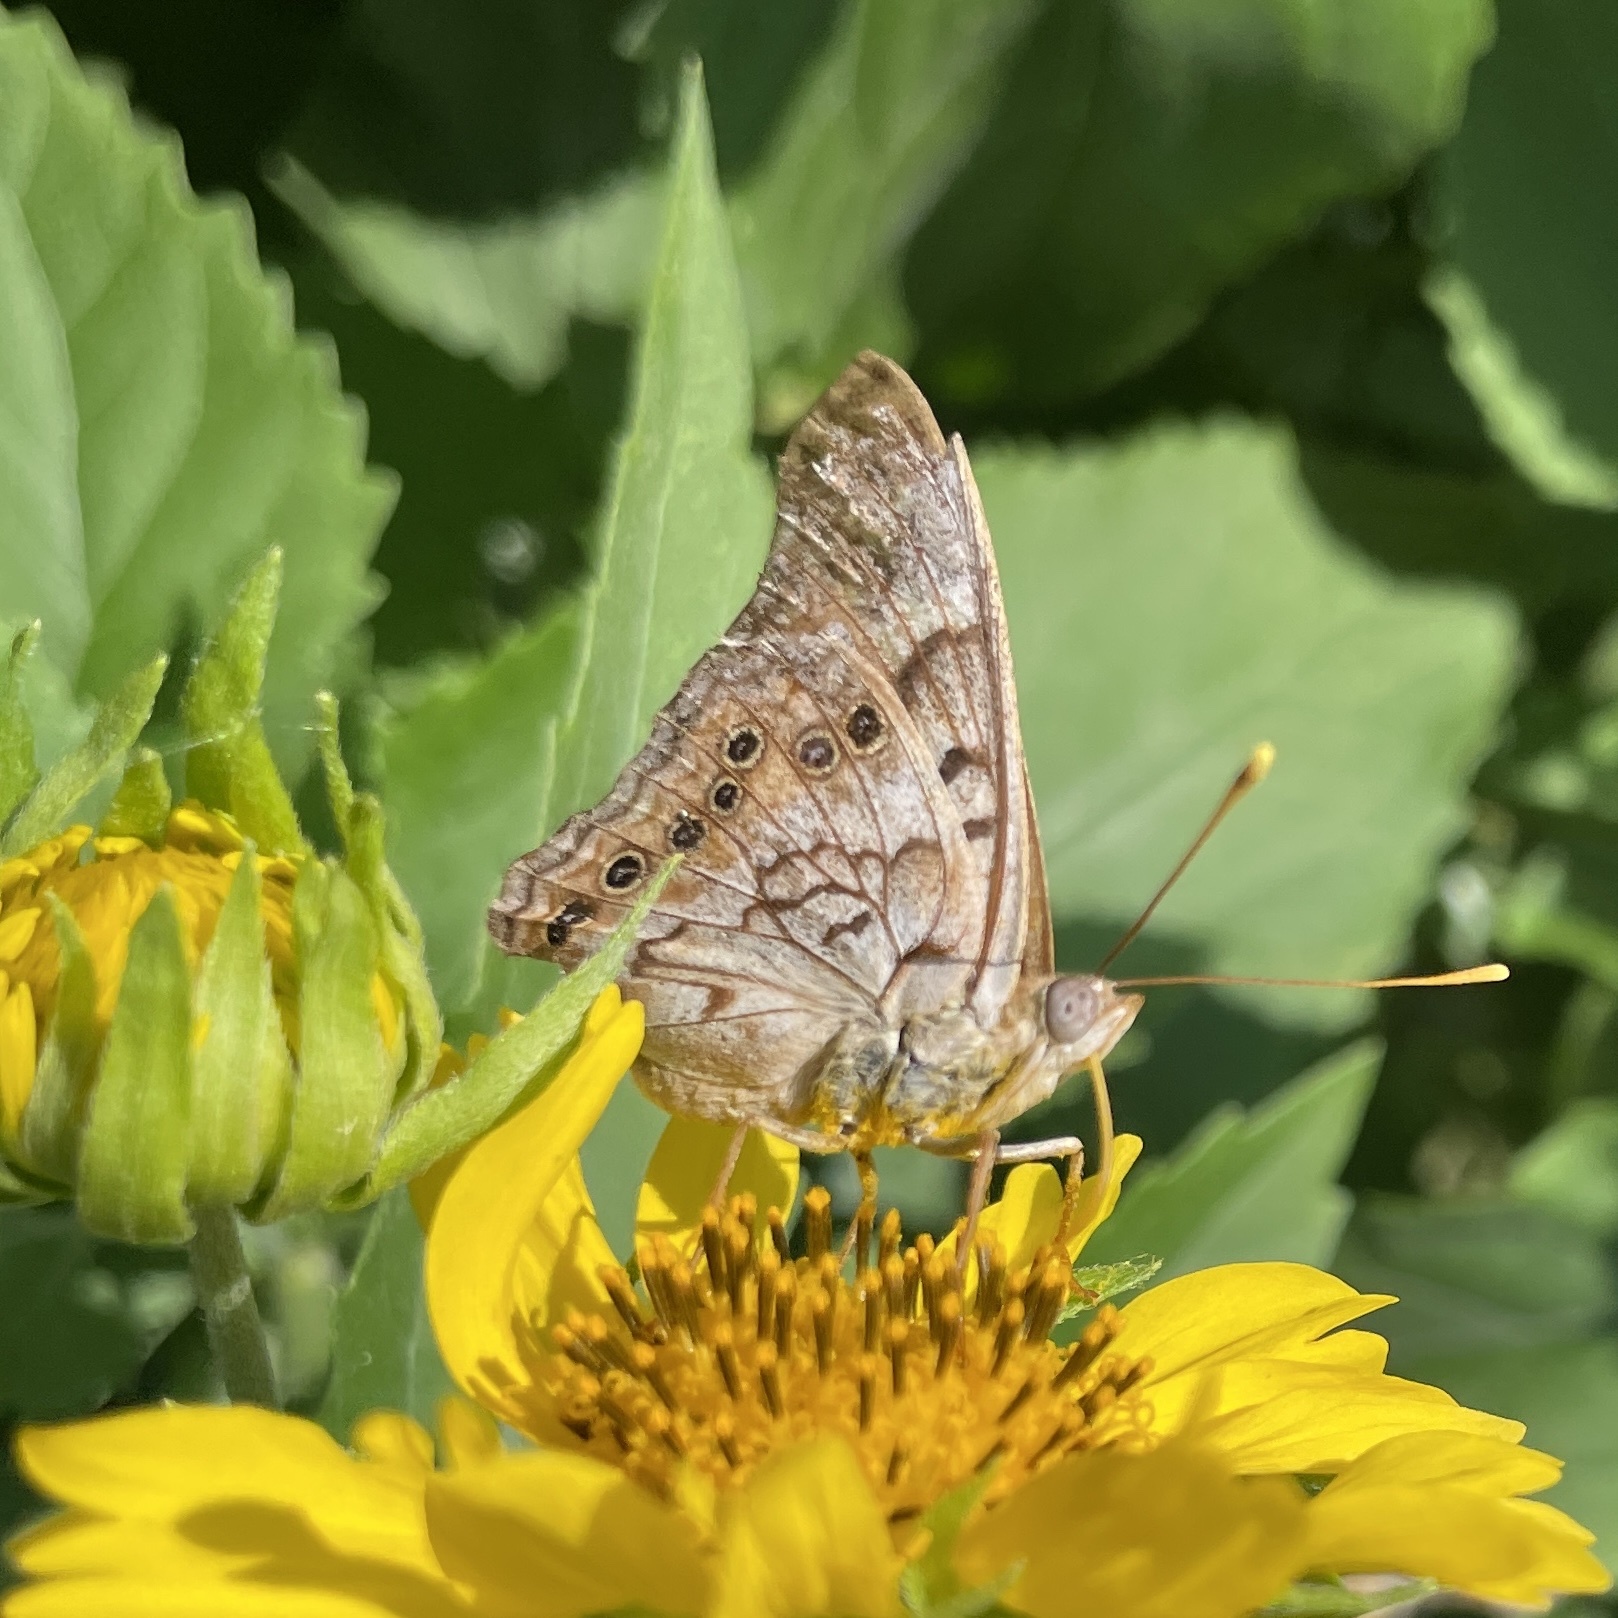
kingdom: Animalia
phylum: Arthropoda
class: Insecta
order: Lepidoptera
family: Nymphalidae
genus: Asterocampa
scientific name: Asterocampa clyton
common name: Tawny emperor
